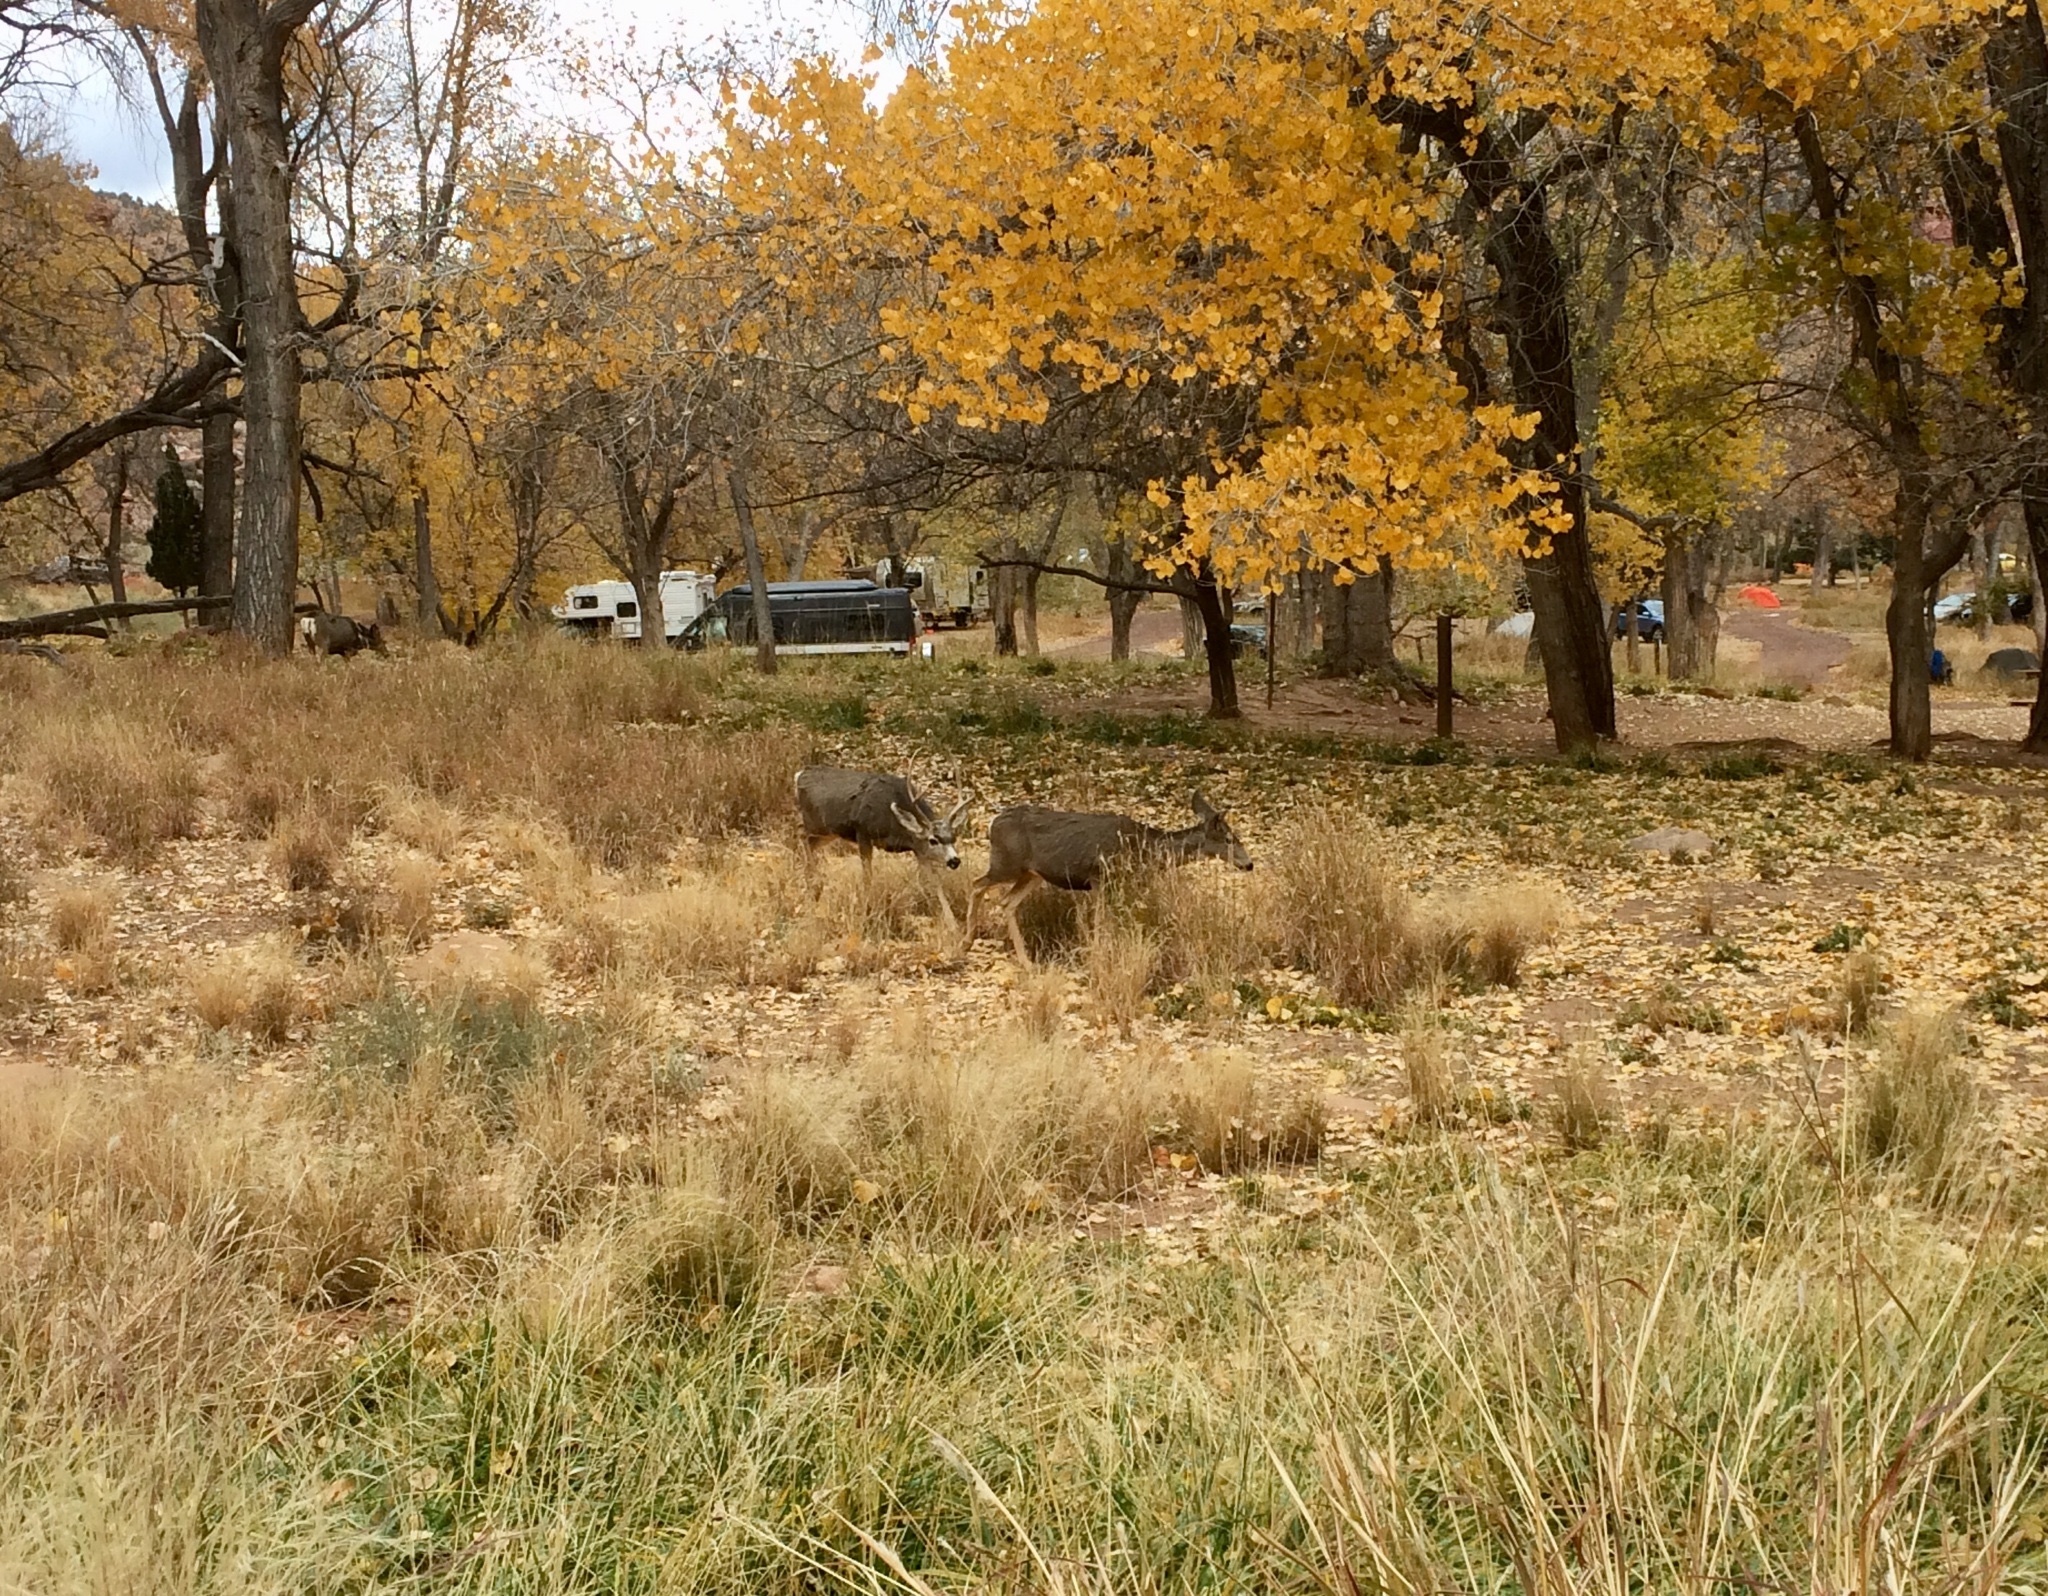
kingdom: Animalia
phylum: Chordata
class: Mammalia
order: Artiodactyla
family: Cervidae
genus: Odocoileus
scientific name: Odocoileus hemionus
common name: Mule deer
